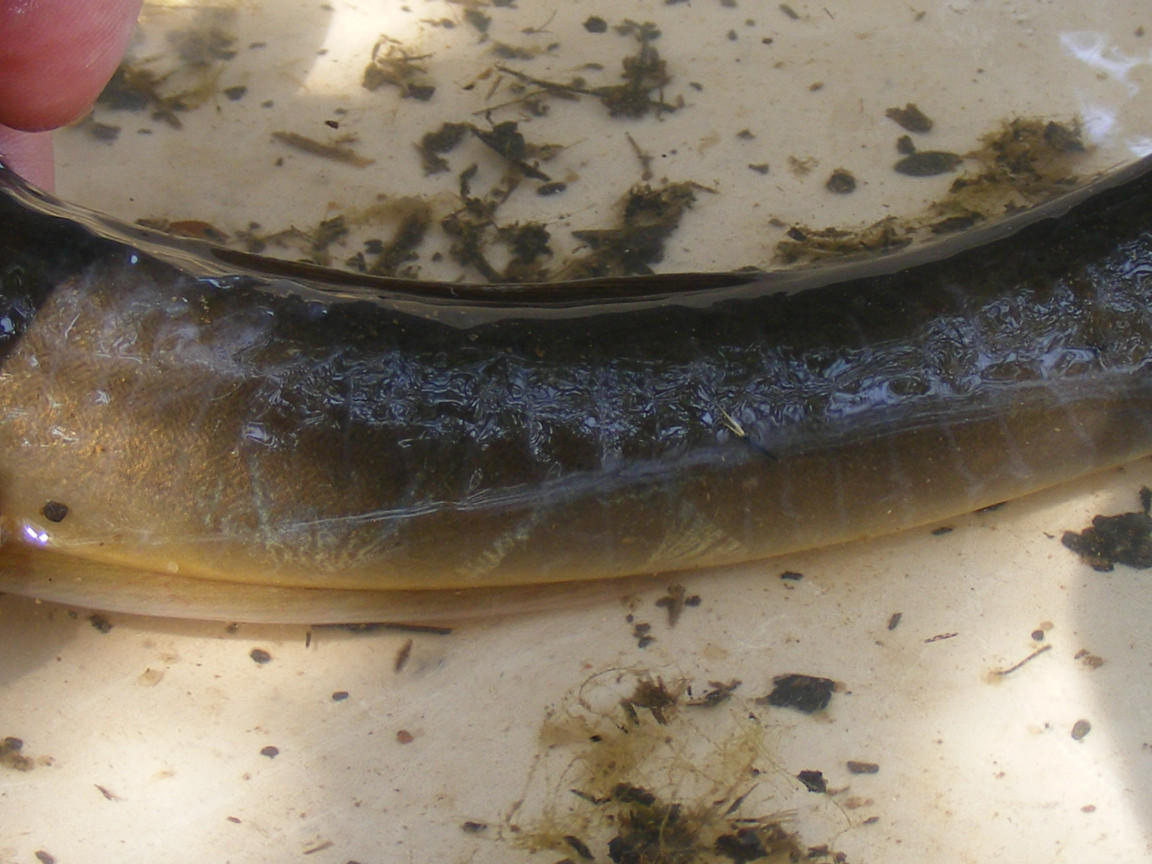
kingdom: Animalia
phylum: Chordata
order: Anguilliformes
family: Anguillidae
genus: Anguilla
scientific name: Anguilla bicolor
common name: Indonesian shortfin eel
